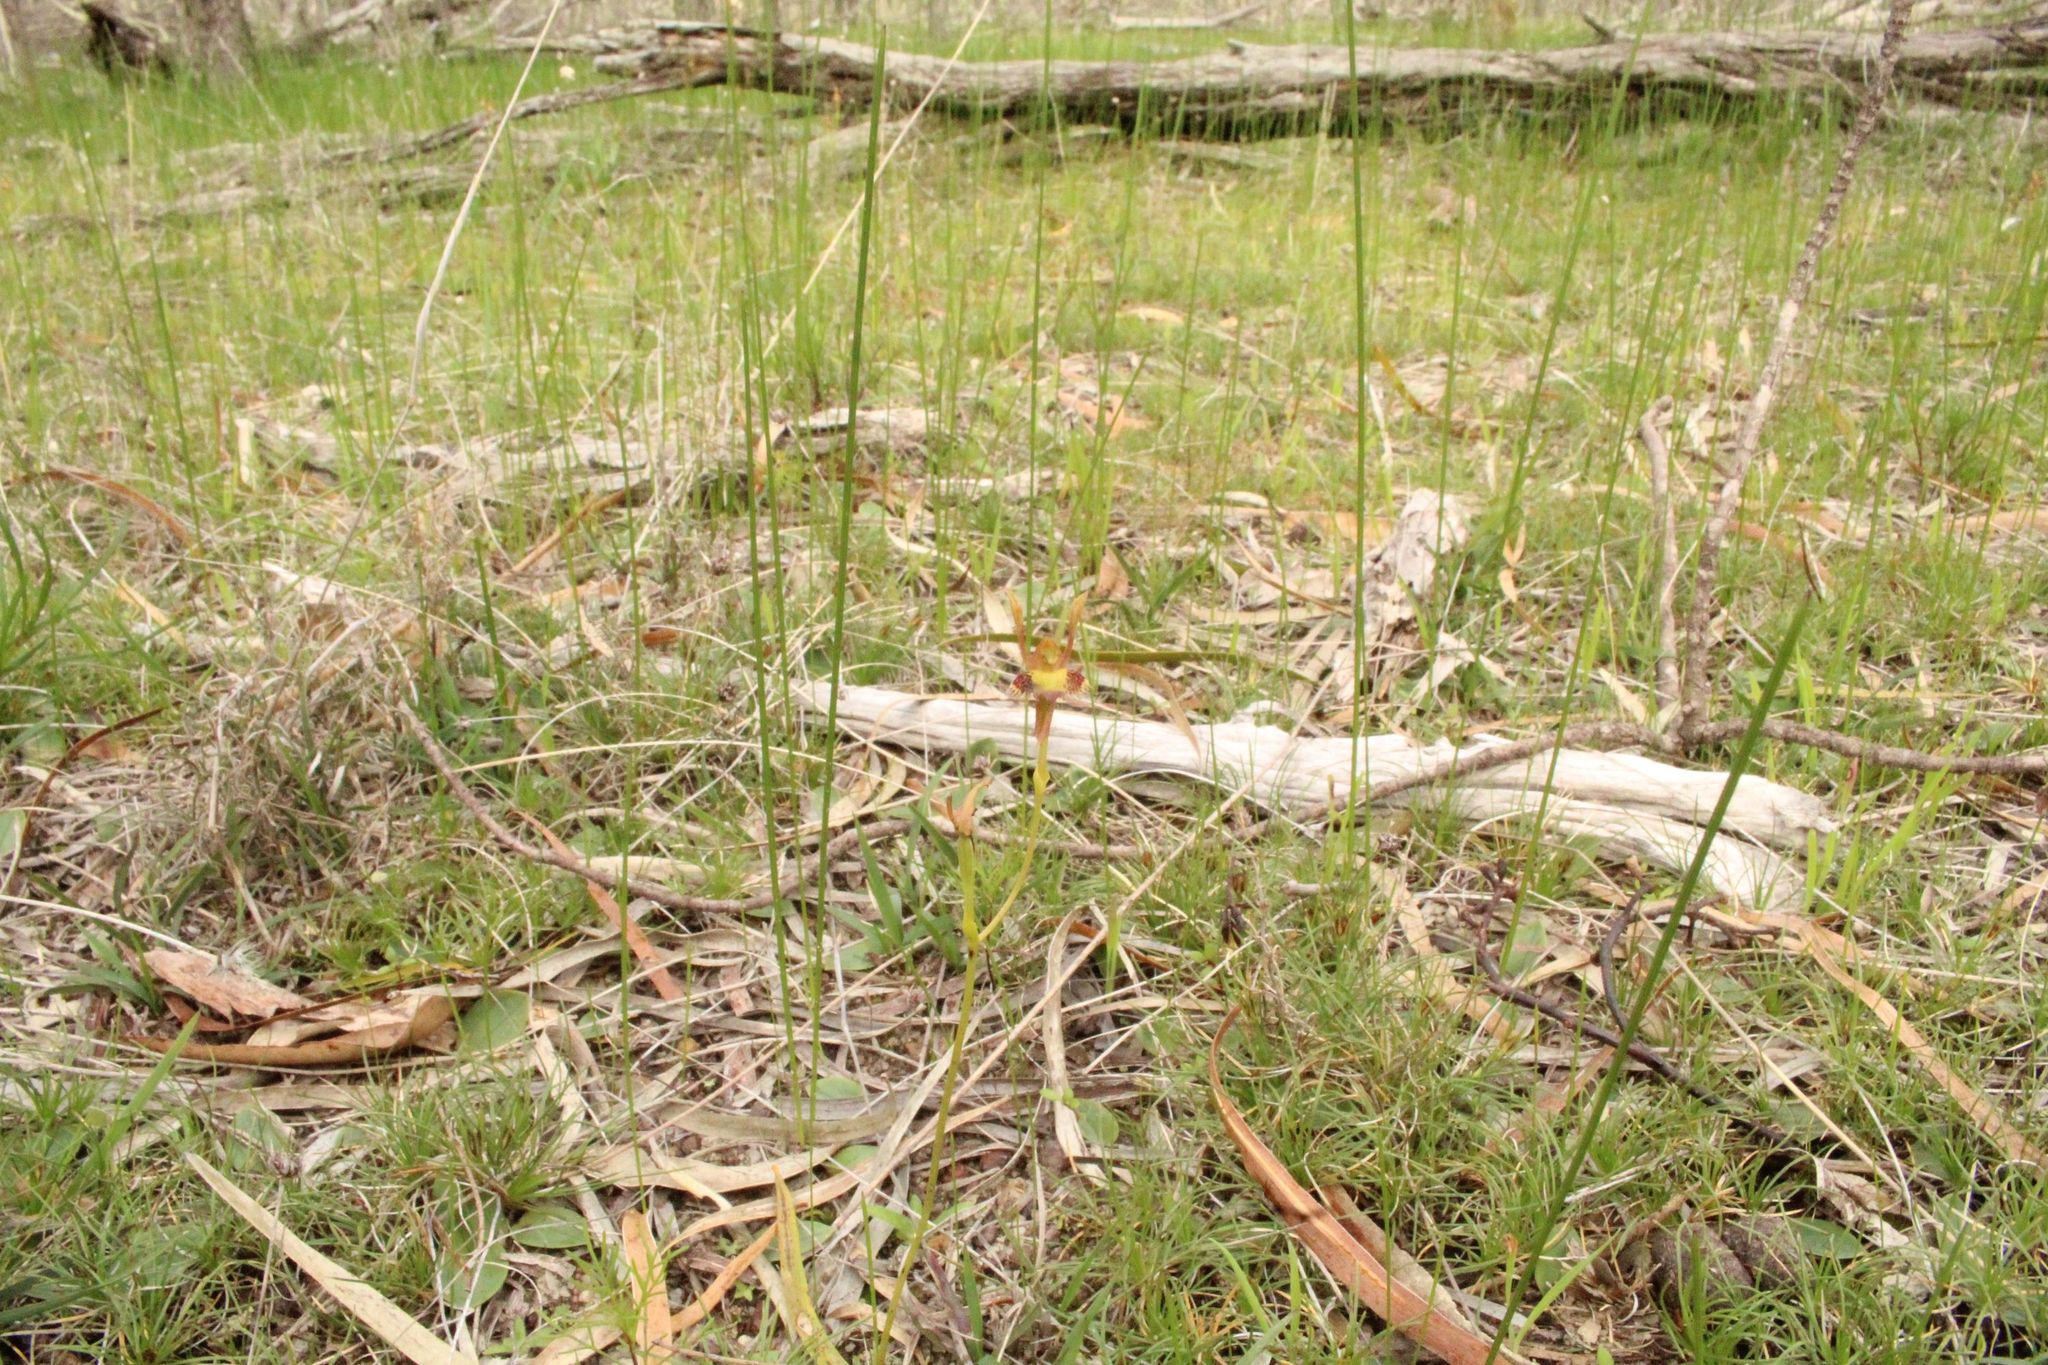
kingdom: Plantae
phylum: Tracheophyta
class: Liliopsida
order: Asparagales
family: Orchidaceae
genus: Leporella
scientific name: Leporella fimbriata
